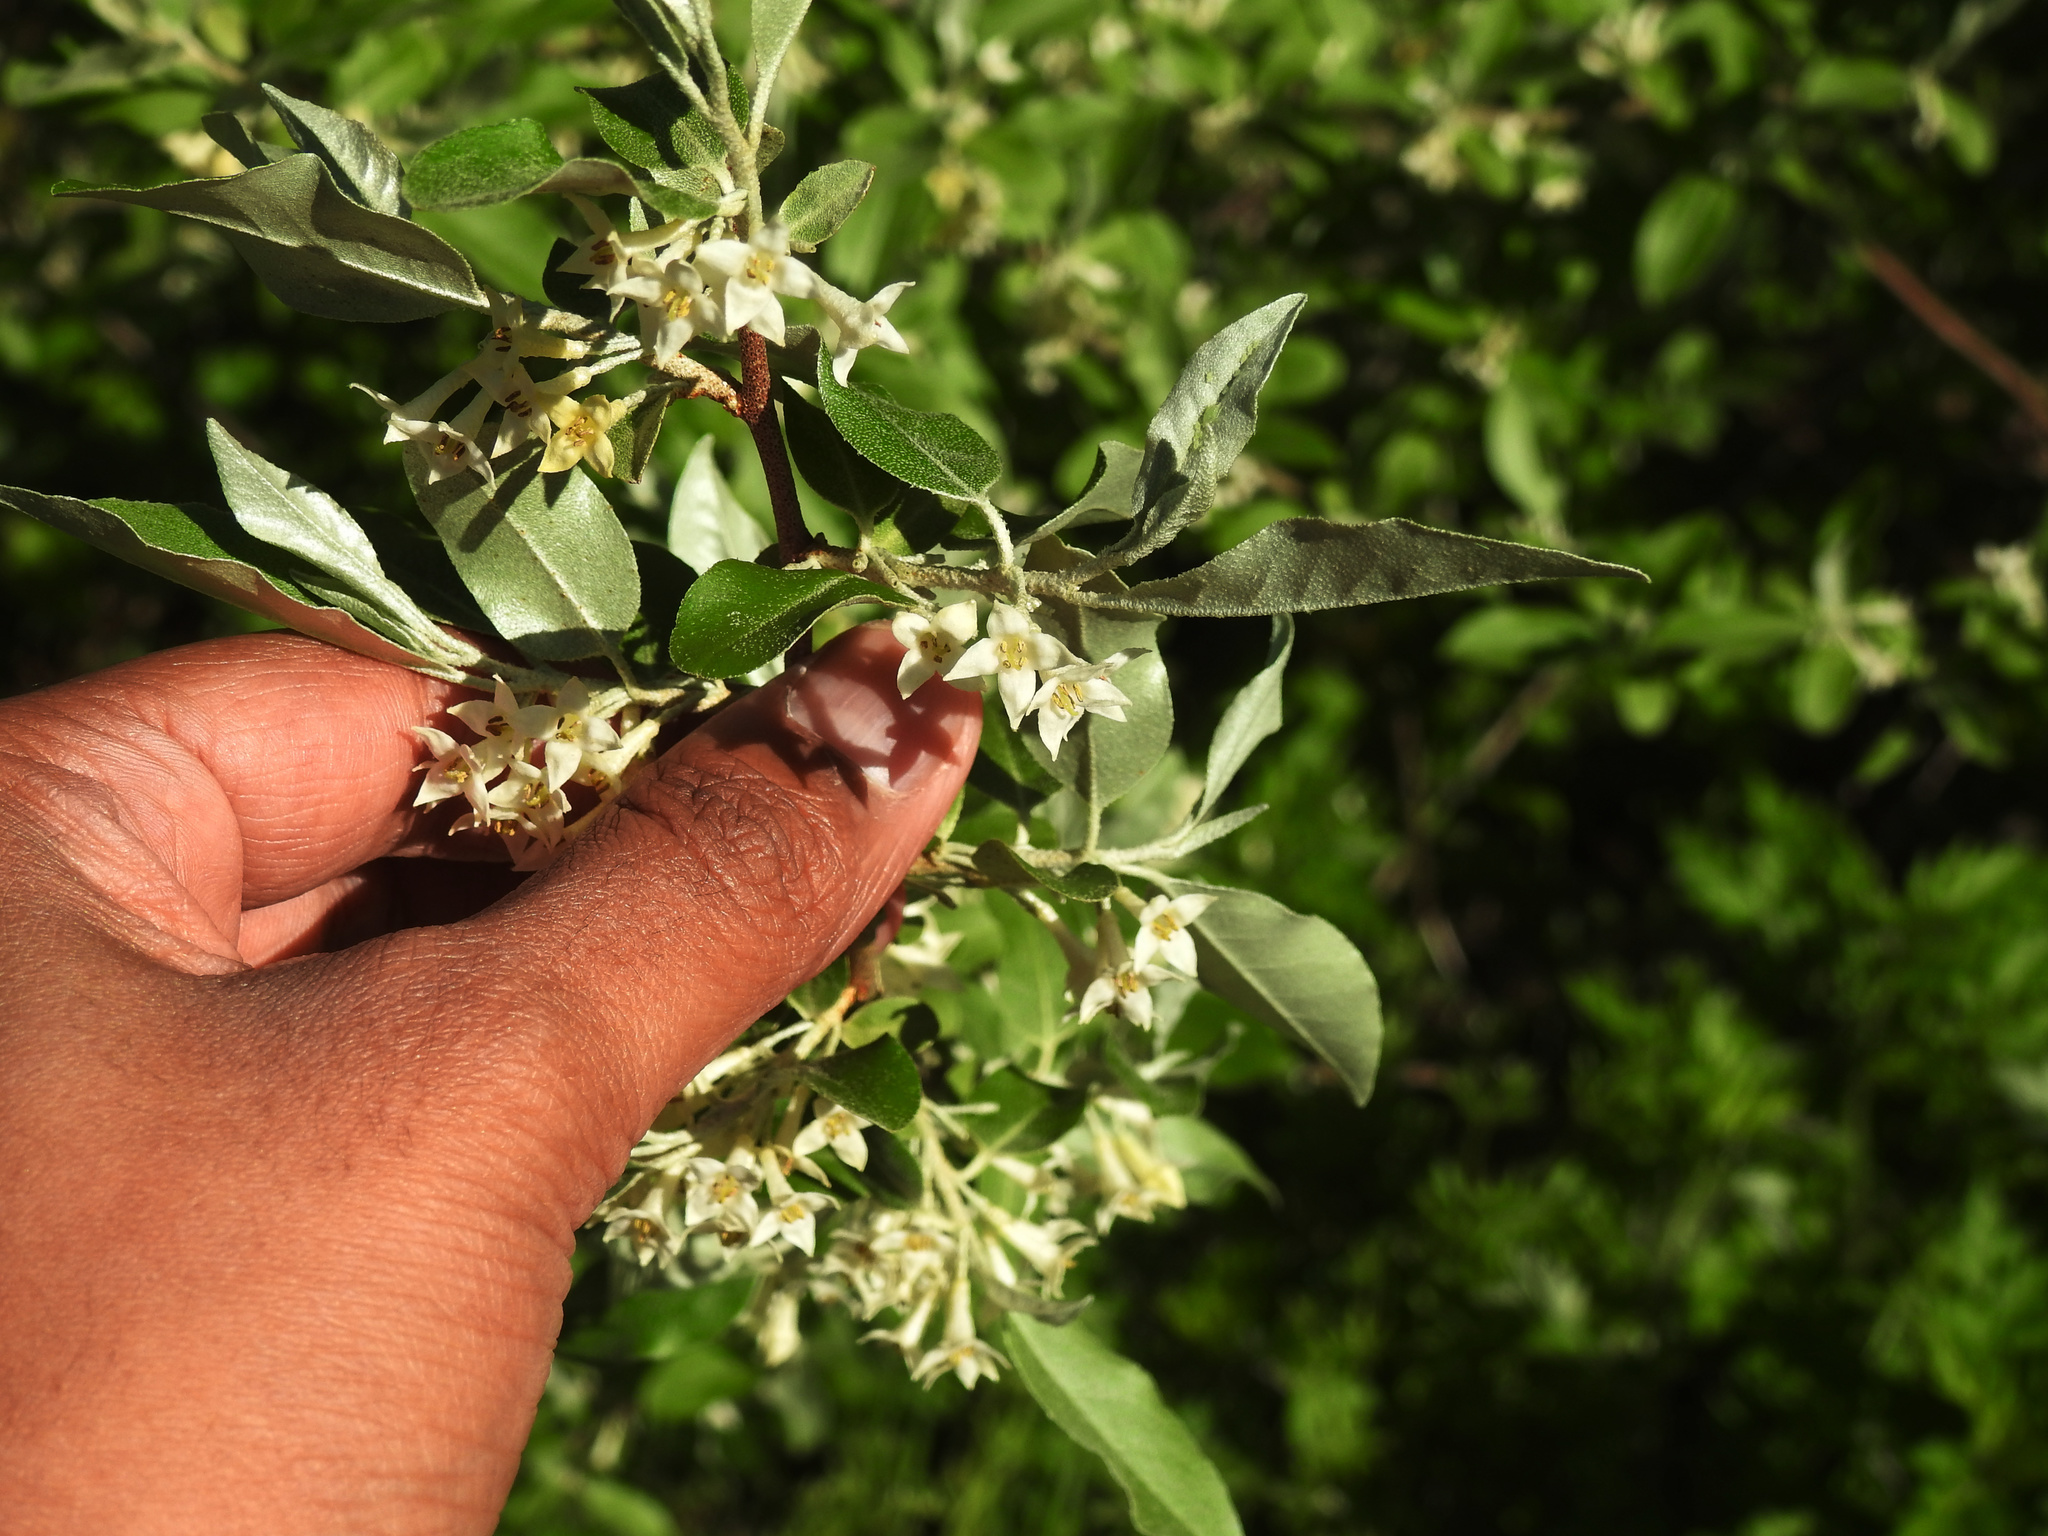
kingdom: Plantae
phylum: Tracheophyta
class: Magnoliopsida
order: Rosales
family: Elaeagnaceae
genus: Elaeagnus
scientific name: Elaeagnus umbellata
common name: Autumn olive
